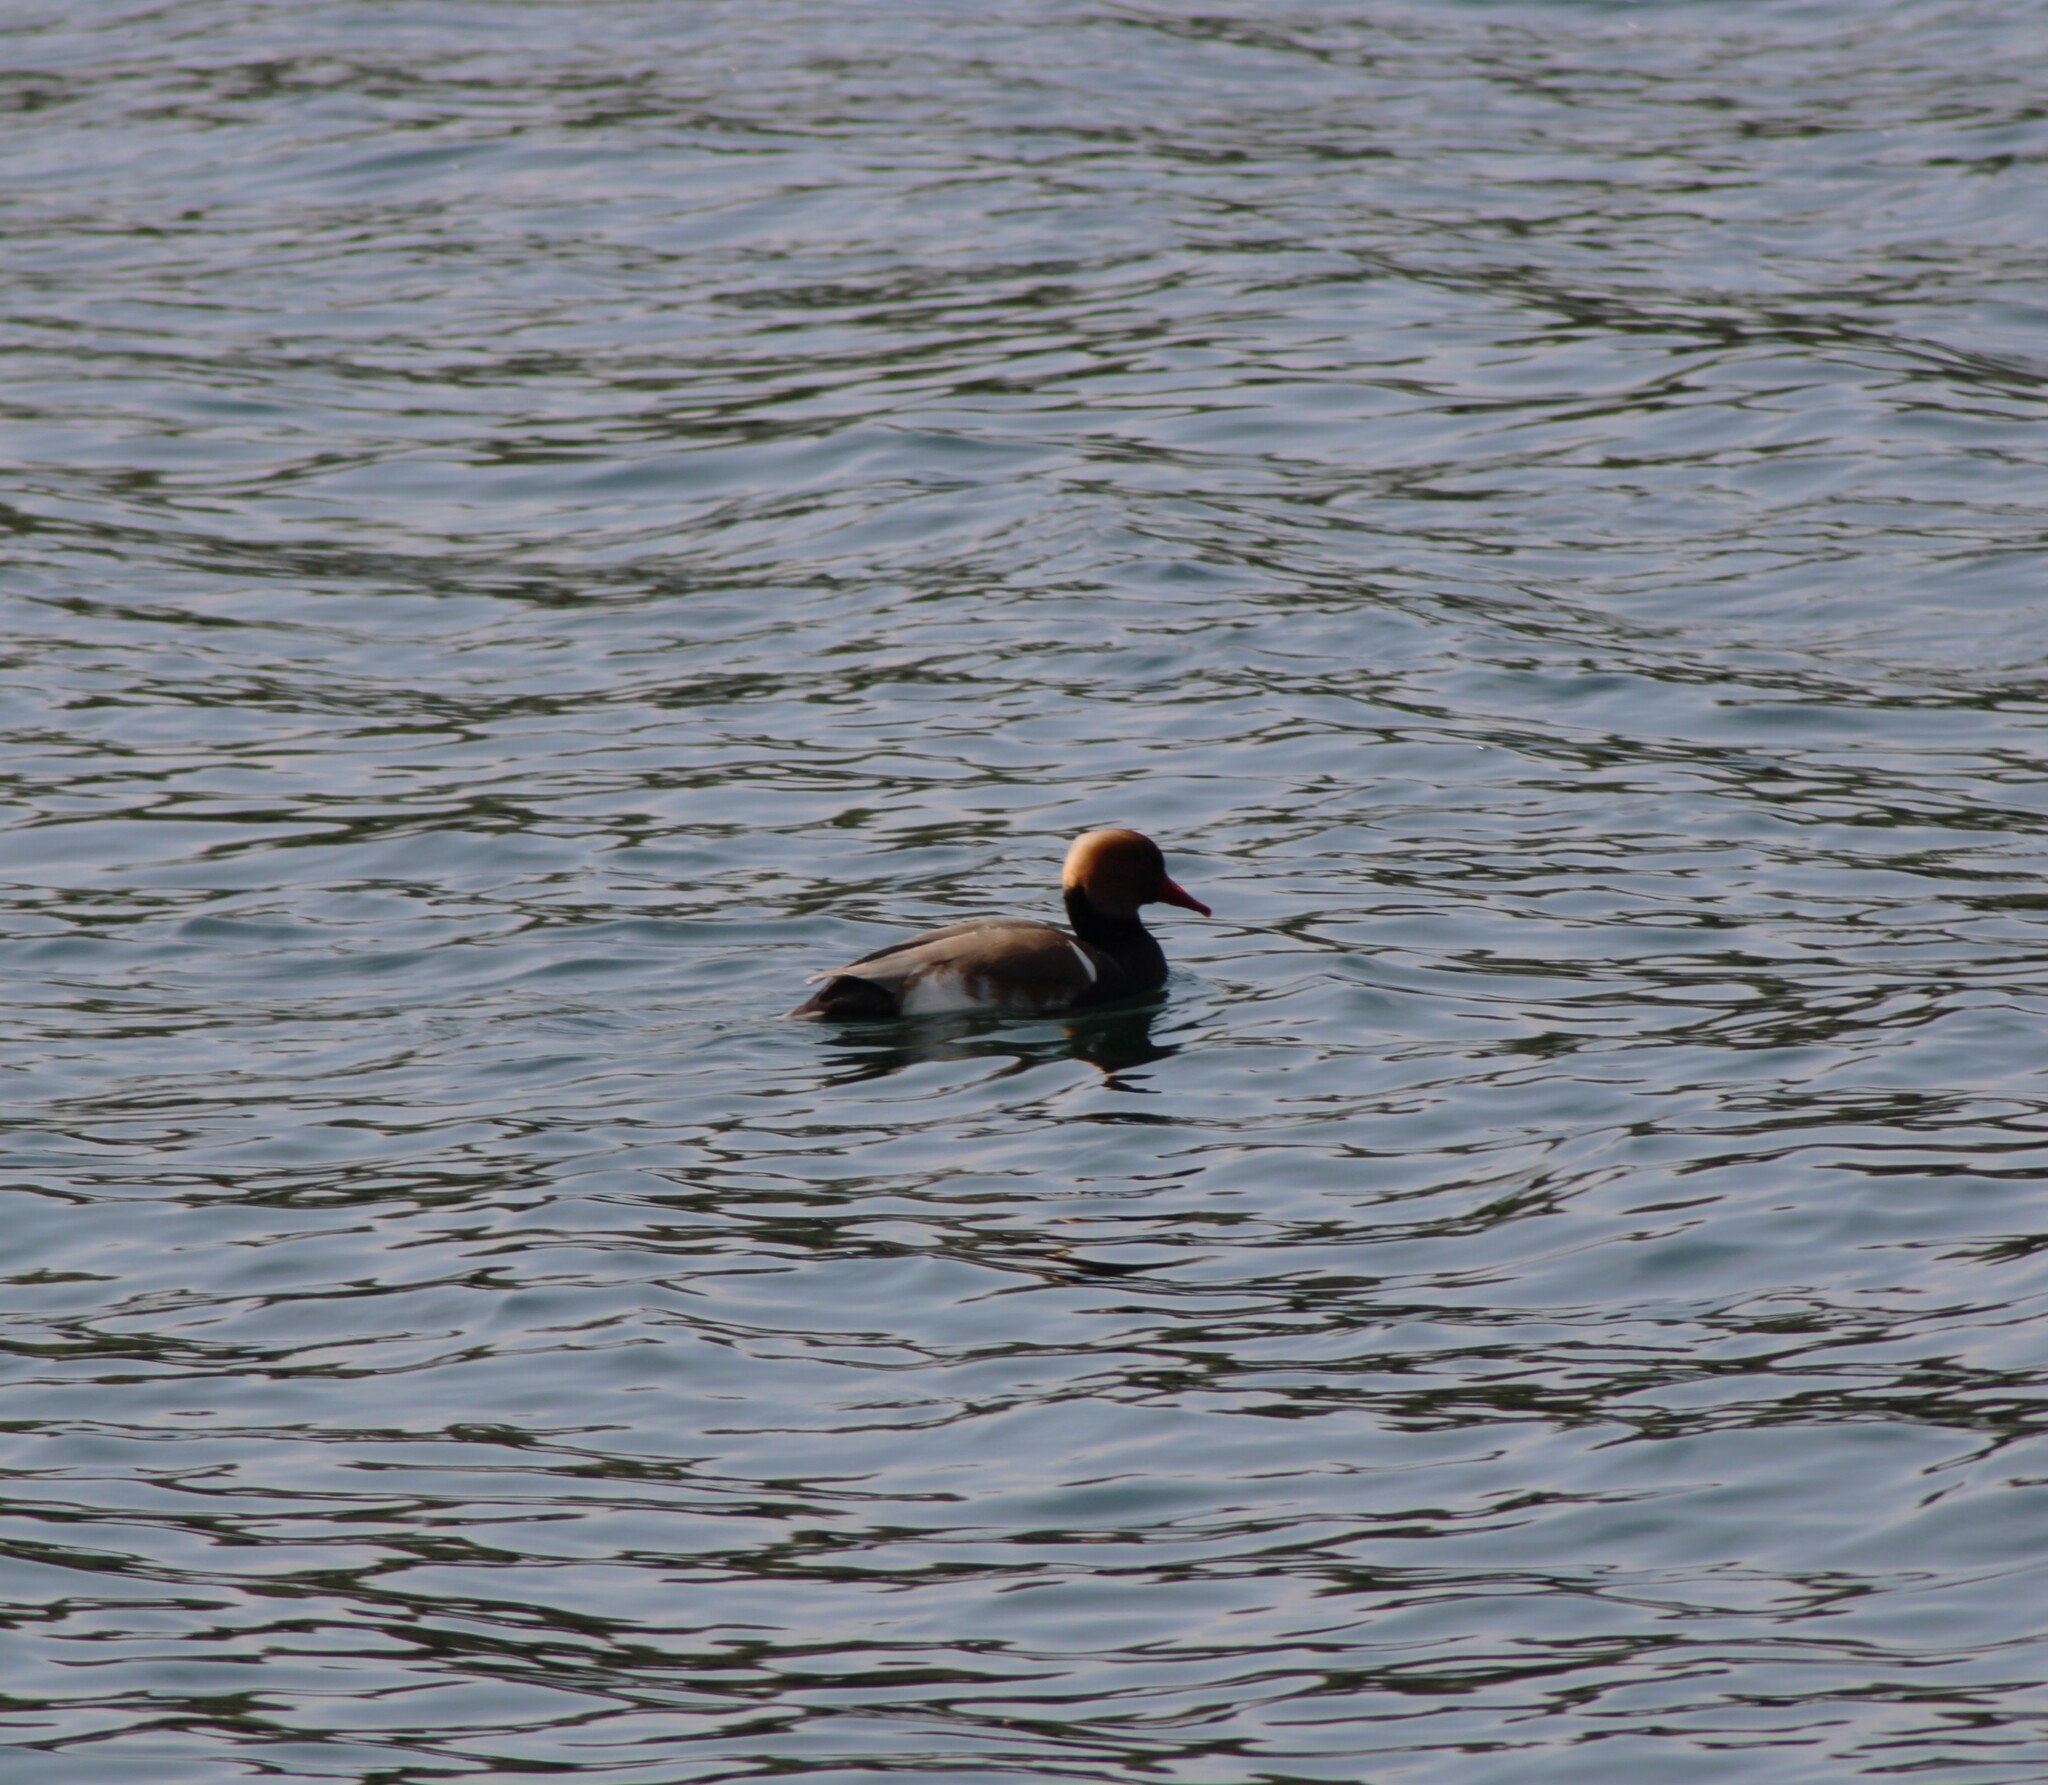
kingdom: Animalia
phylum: Chordata
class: Aves
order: Anseriformes
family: Anatidae
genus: Netta
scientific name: Netta rufina
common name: Red-crested pochard
